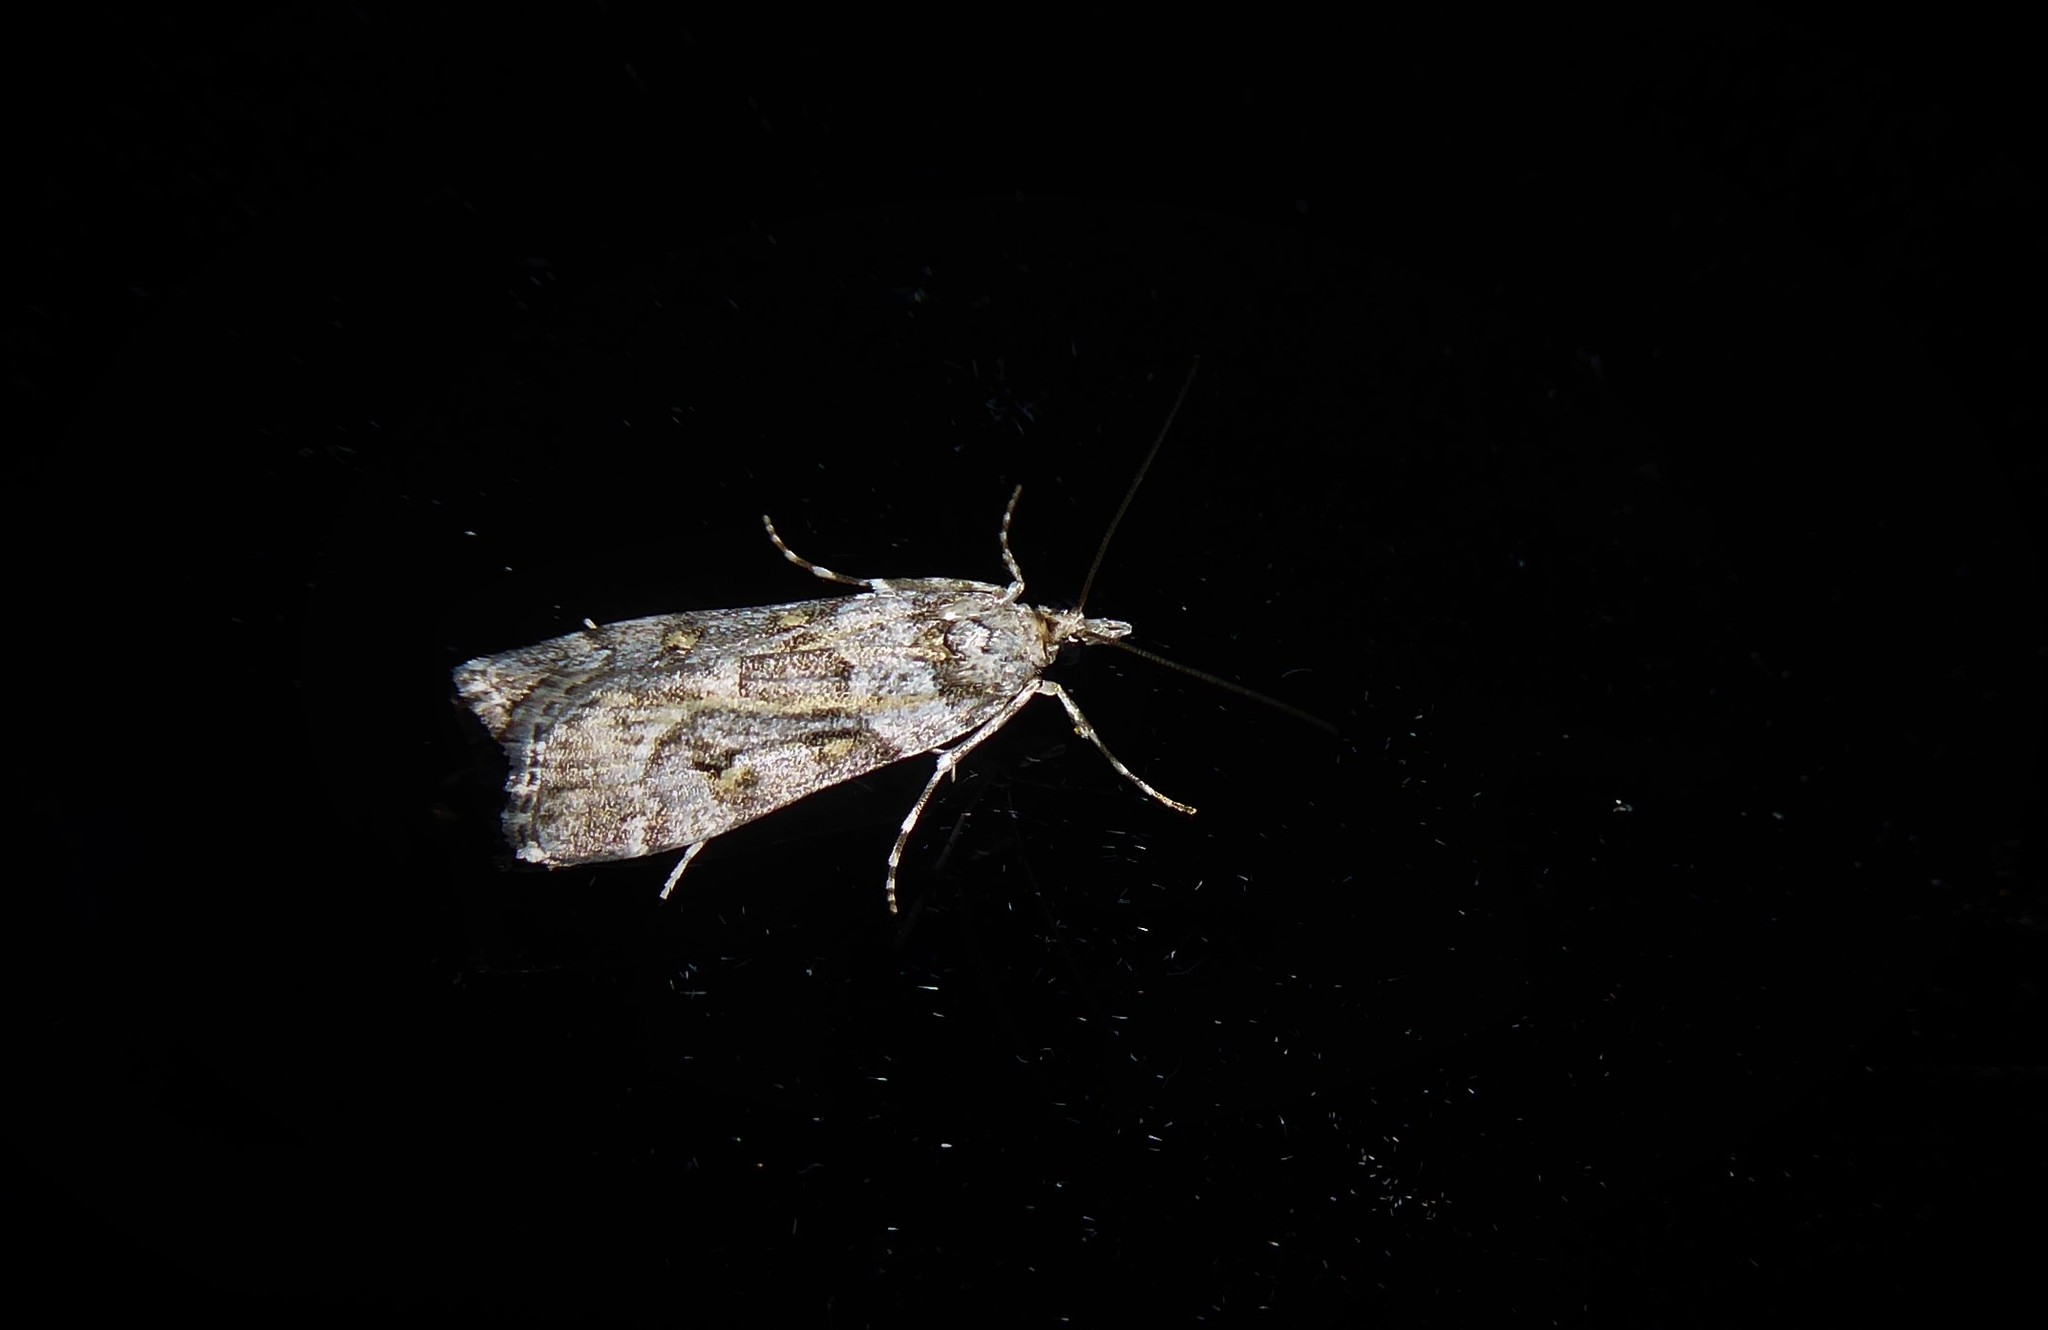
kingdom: Animalia
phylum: Arthropoda
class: Insecta
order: Lepidoptera
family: Crambidae
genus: Eudonia
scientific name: Eudonia diphtheralis
